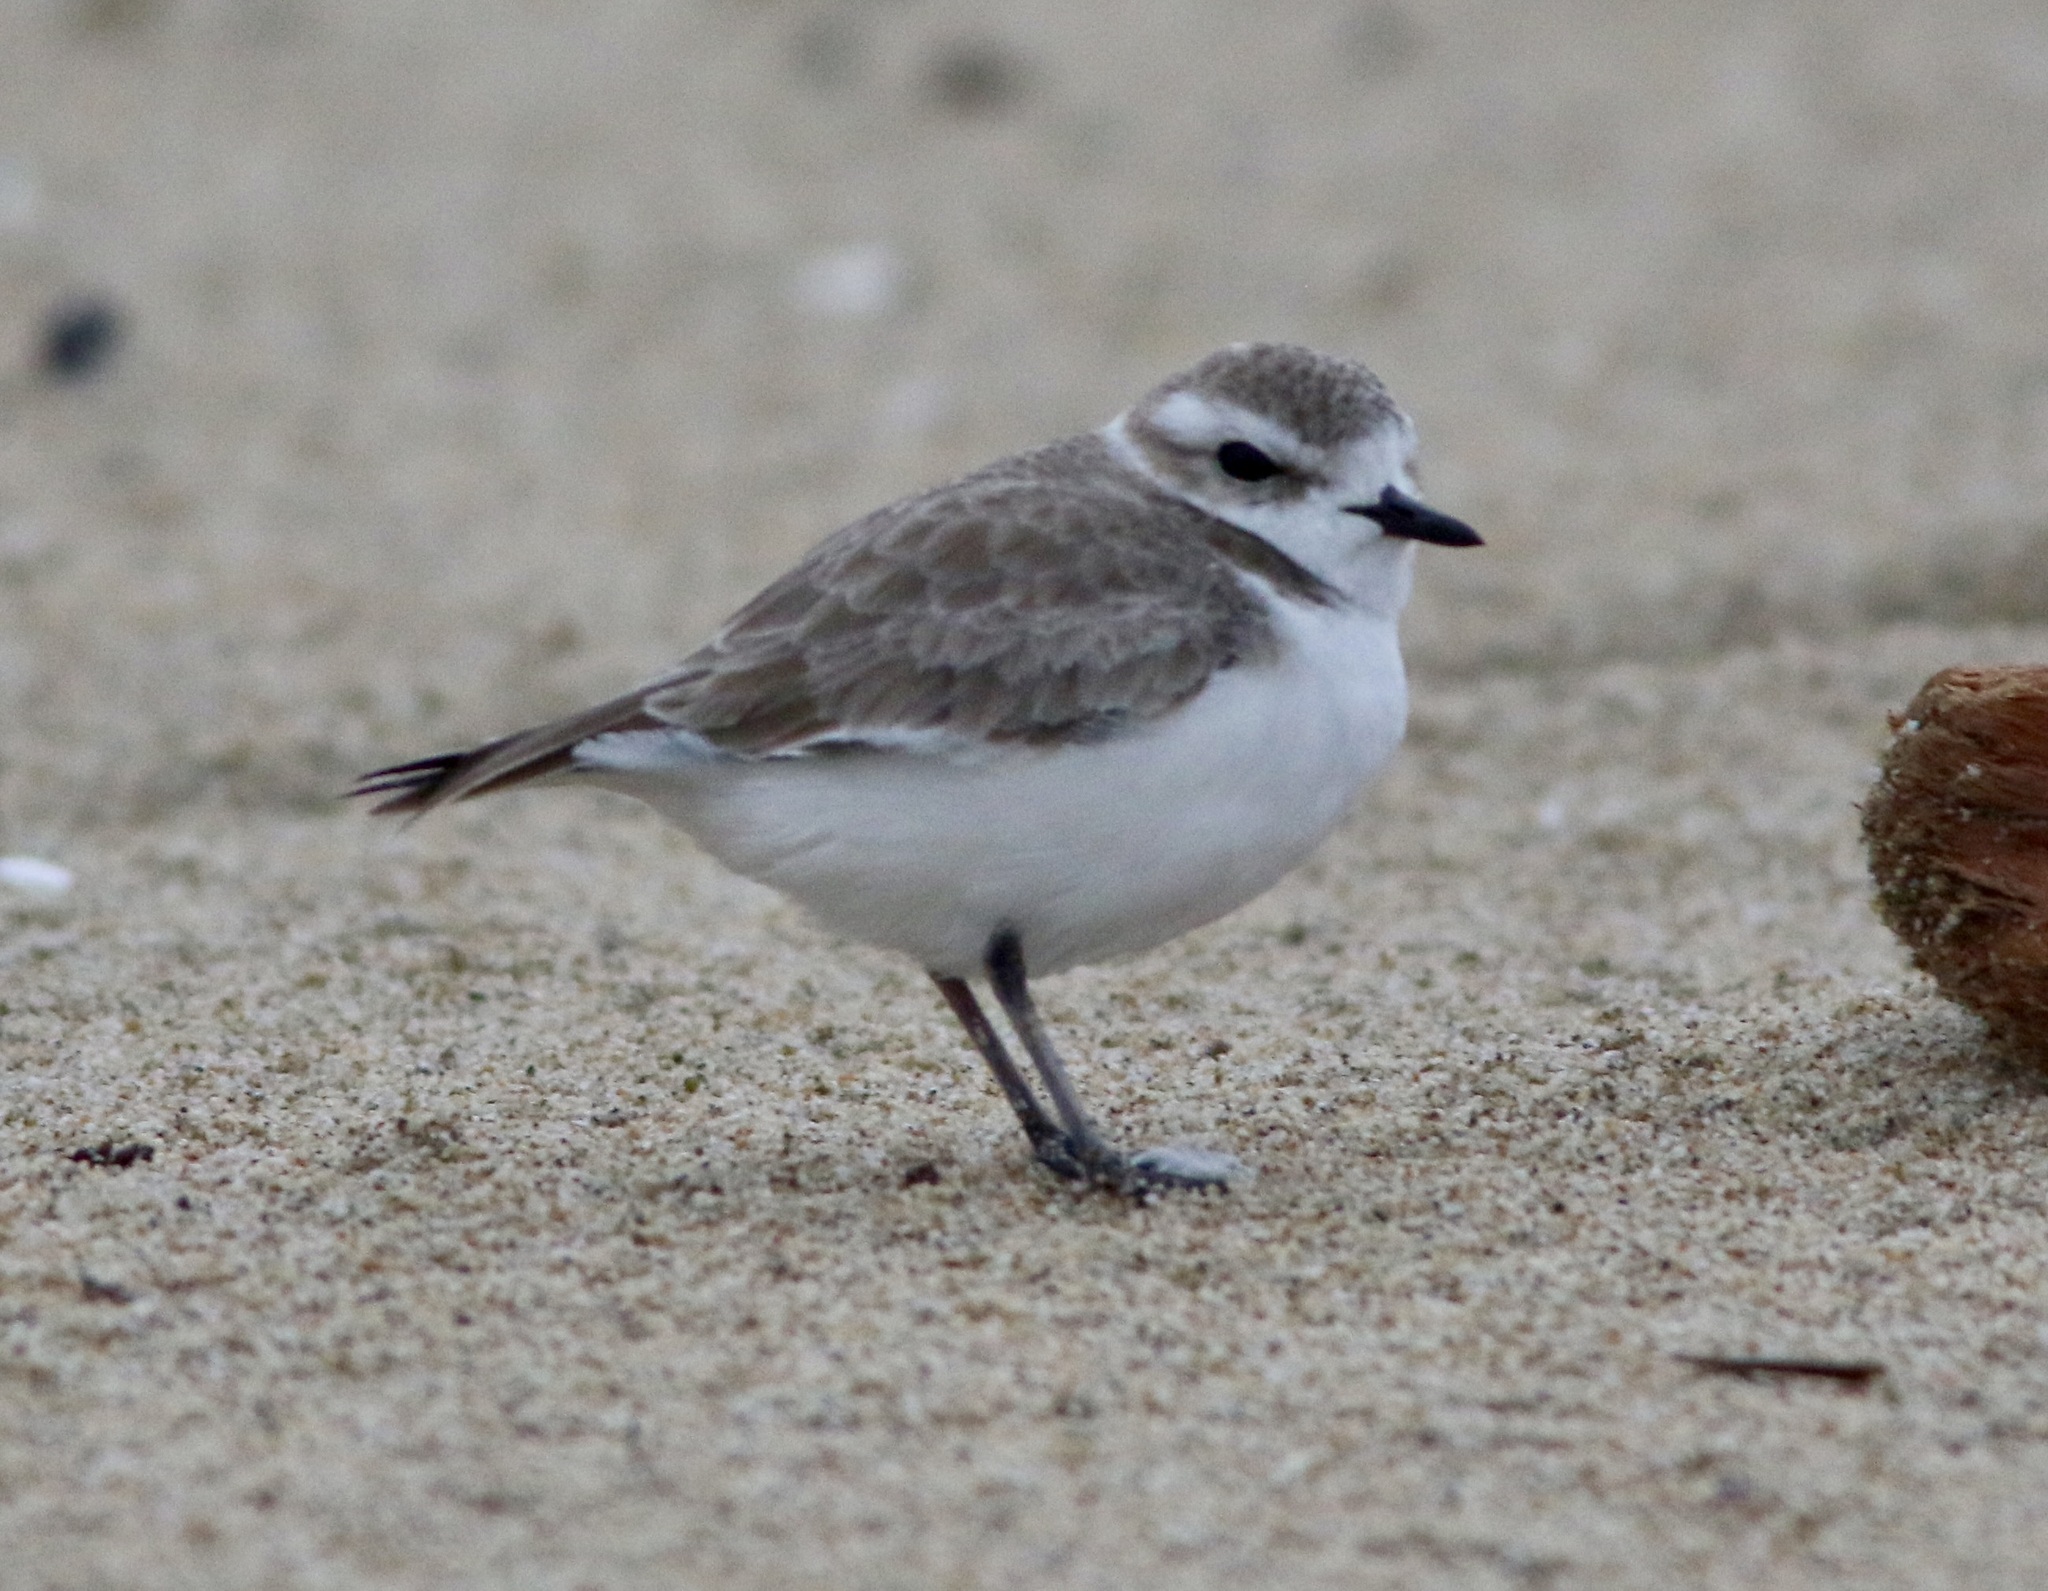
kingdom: Animalia
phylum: Chordata
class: Aves
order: Charadriiformes
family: Charadriidae
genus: Anarhynchus
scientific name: Anarhynchus
